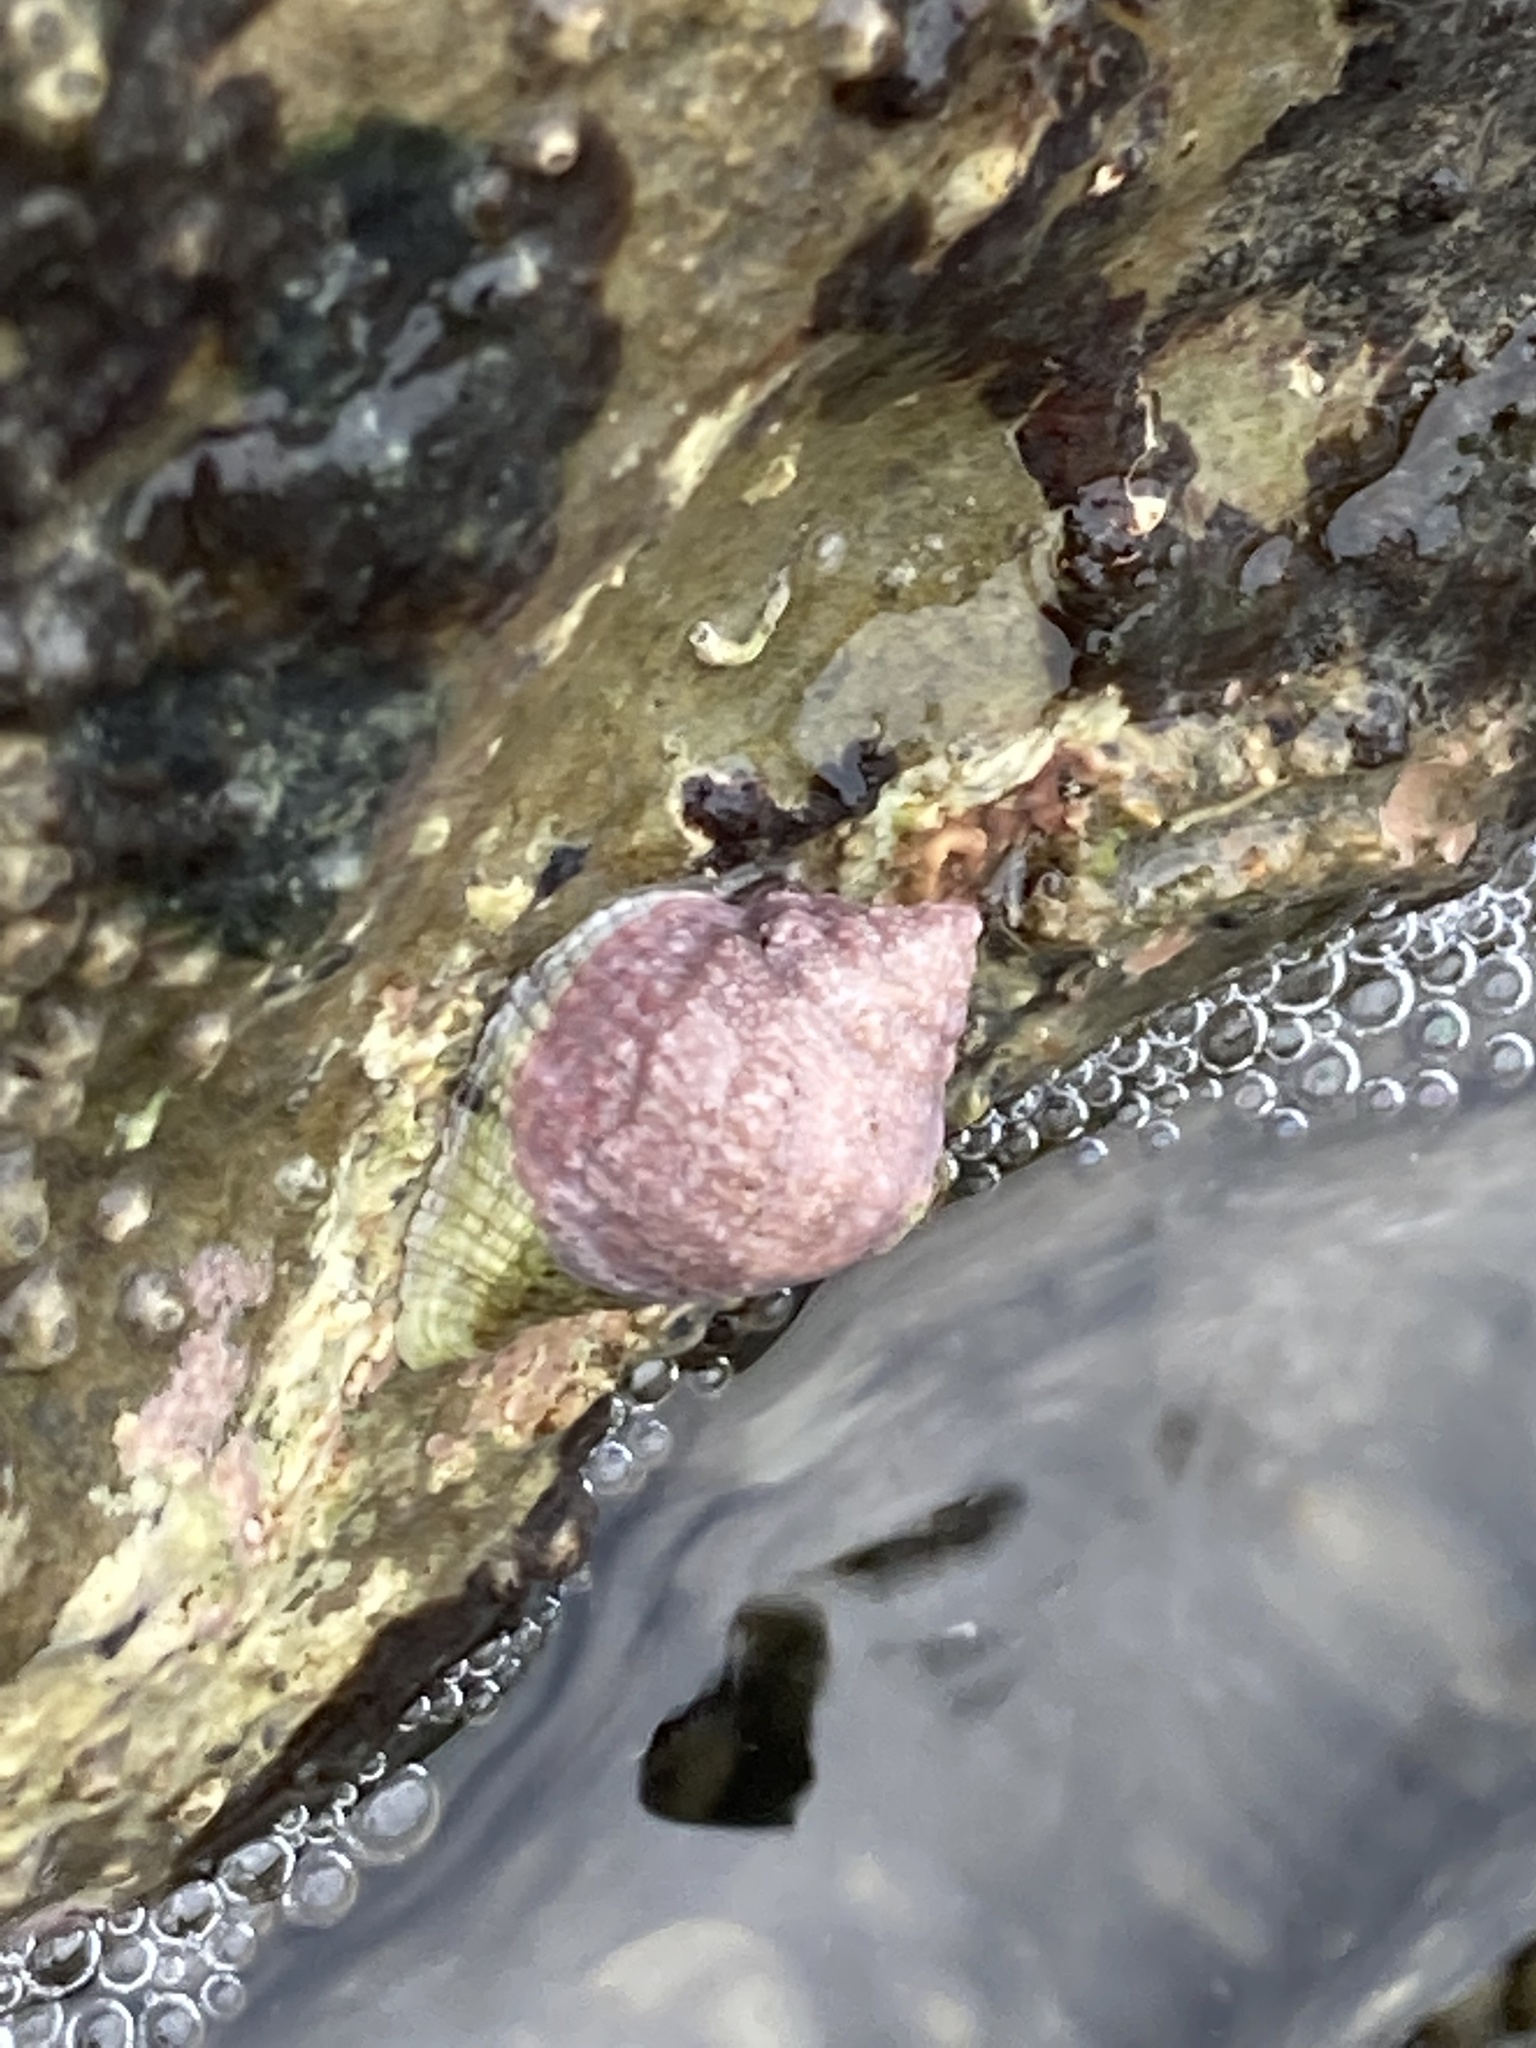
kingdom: Animalia
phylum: Mollusca
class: Gastropoda
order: Neogastropoda
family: Muricidae
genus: Haustrum
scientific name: Haustrum haustorium
